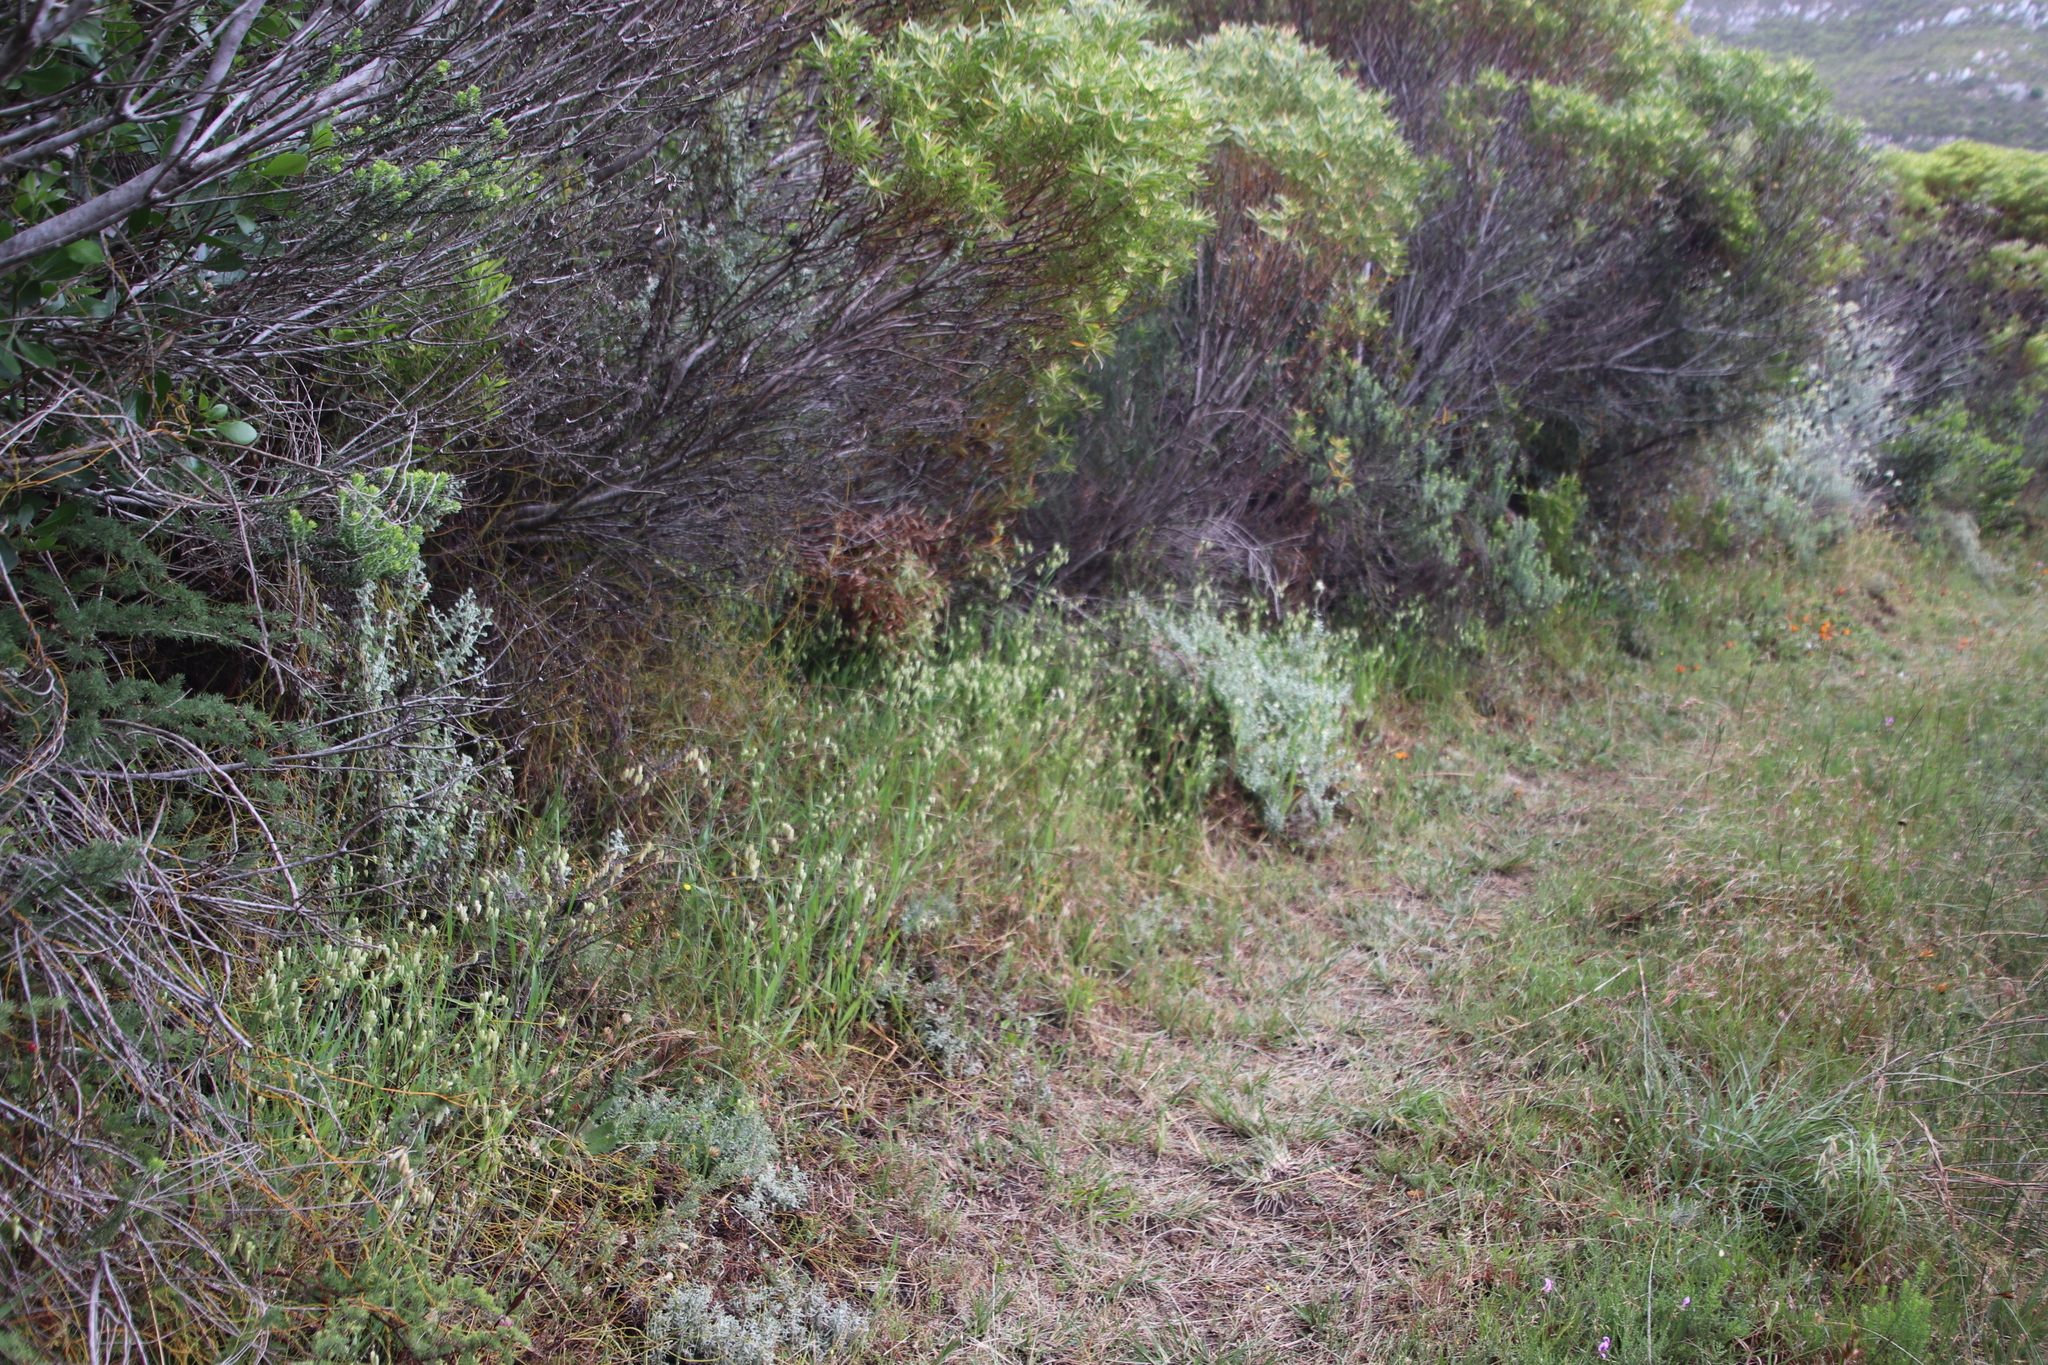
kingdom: Plantae
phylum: Tracheophyta
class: Liliopsida
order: Poales
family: Poaceae
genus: Briza
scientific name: Briza maxima
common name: Big quakinggrass
